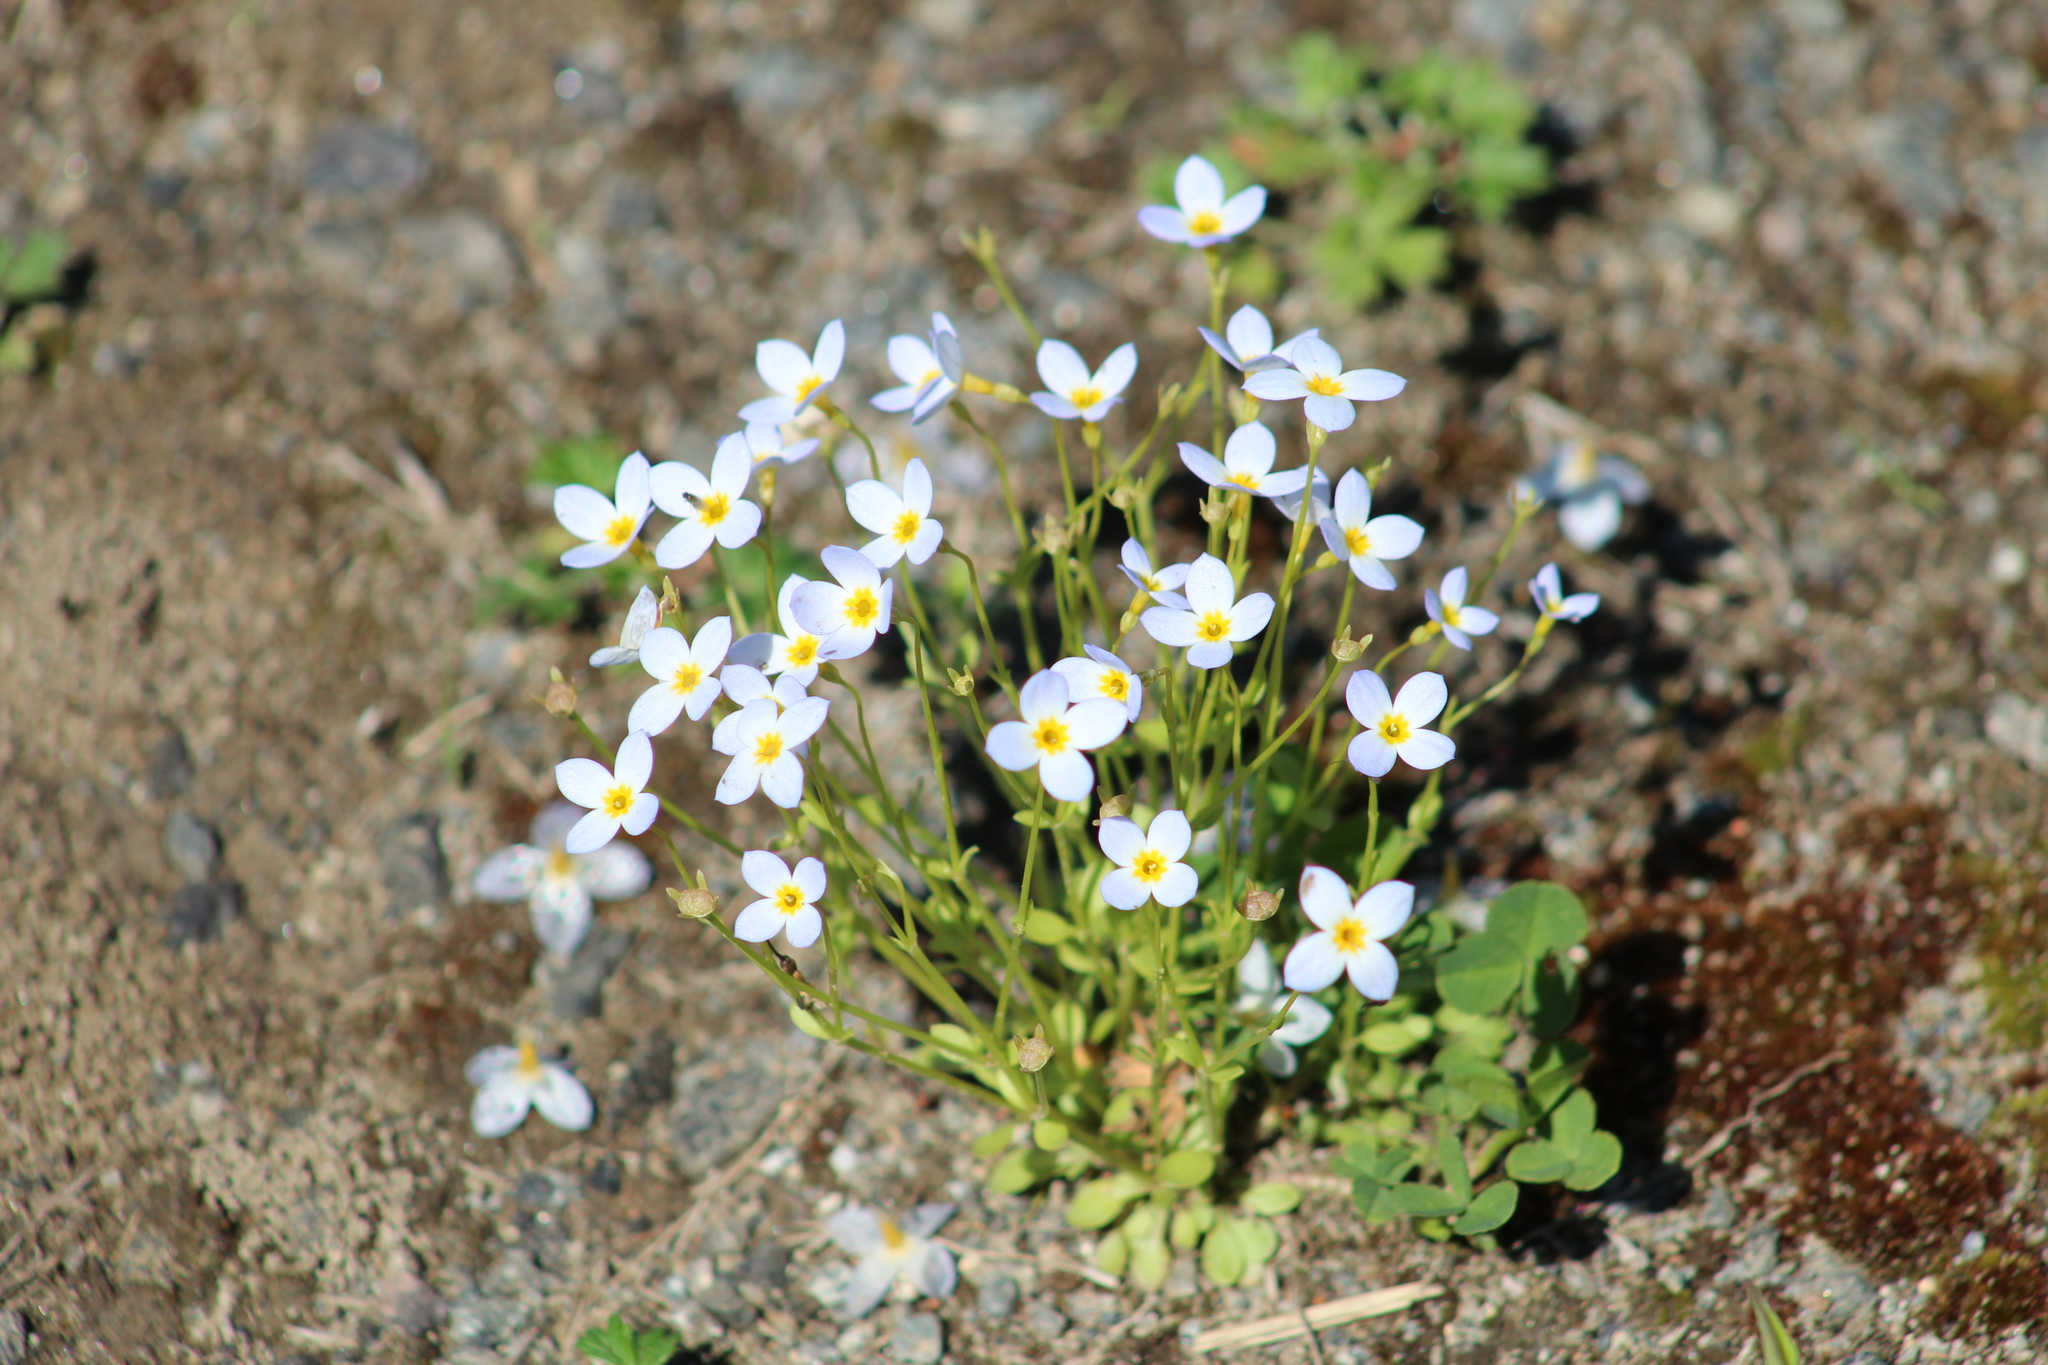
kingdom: Plantae
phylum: Tracheophyta
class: Magnoliopsida
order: Gentianales
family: Rubiaceae
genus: Houstonia
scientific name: Houstonia caerulea
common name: Bluets
